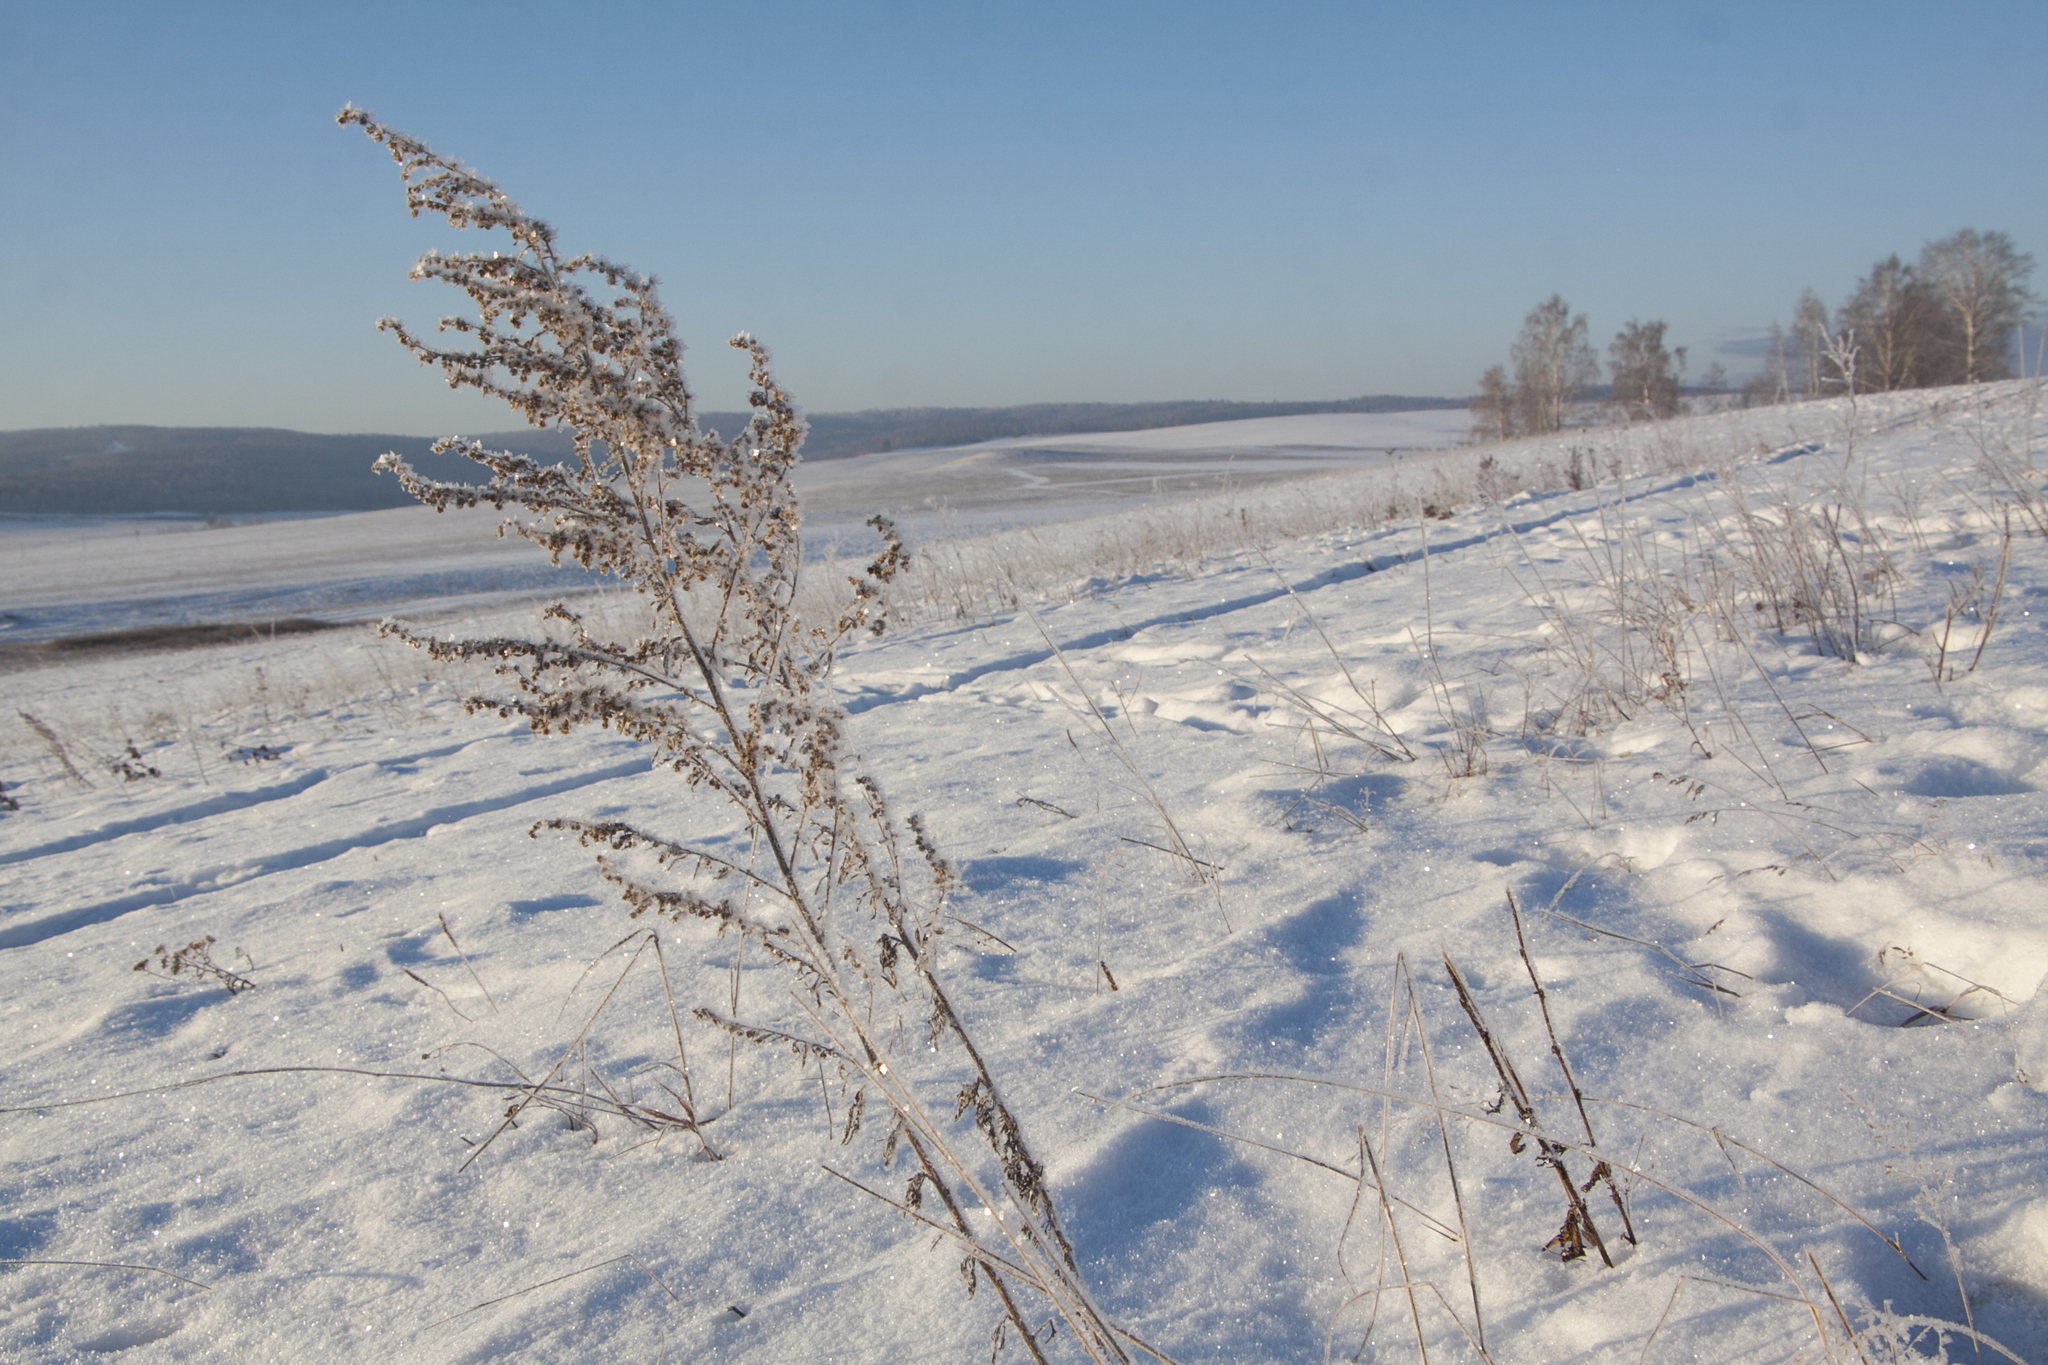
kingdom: Plantae
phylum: Tracheophyta
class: Magnoliopsida
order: Asterales
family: Asteraceae
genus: Artemisia
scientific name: Artemisia vulgaris
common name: Mugwort
